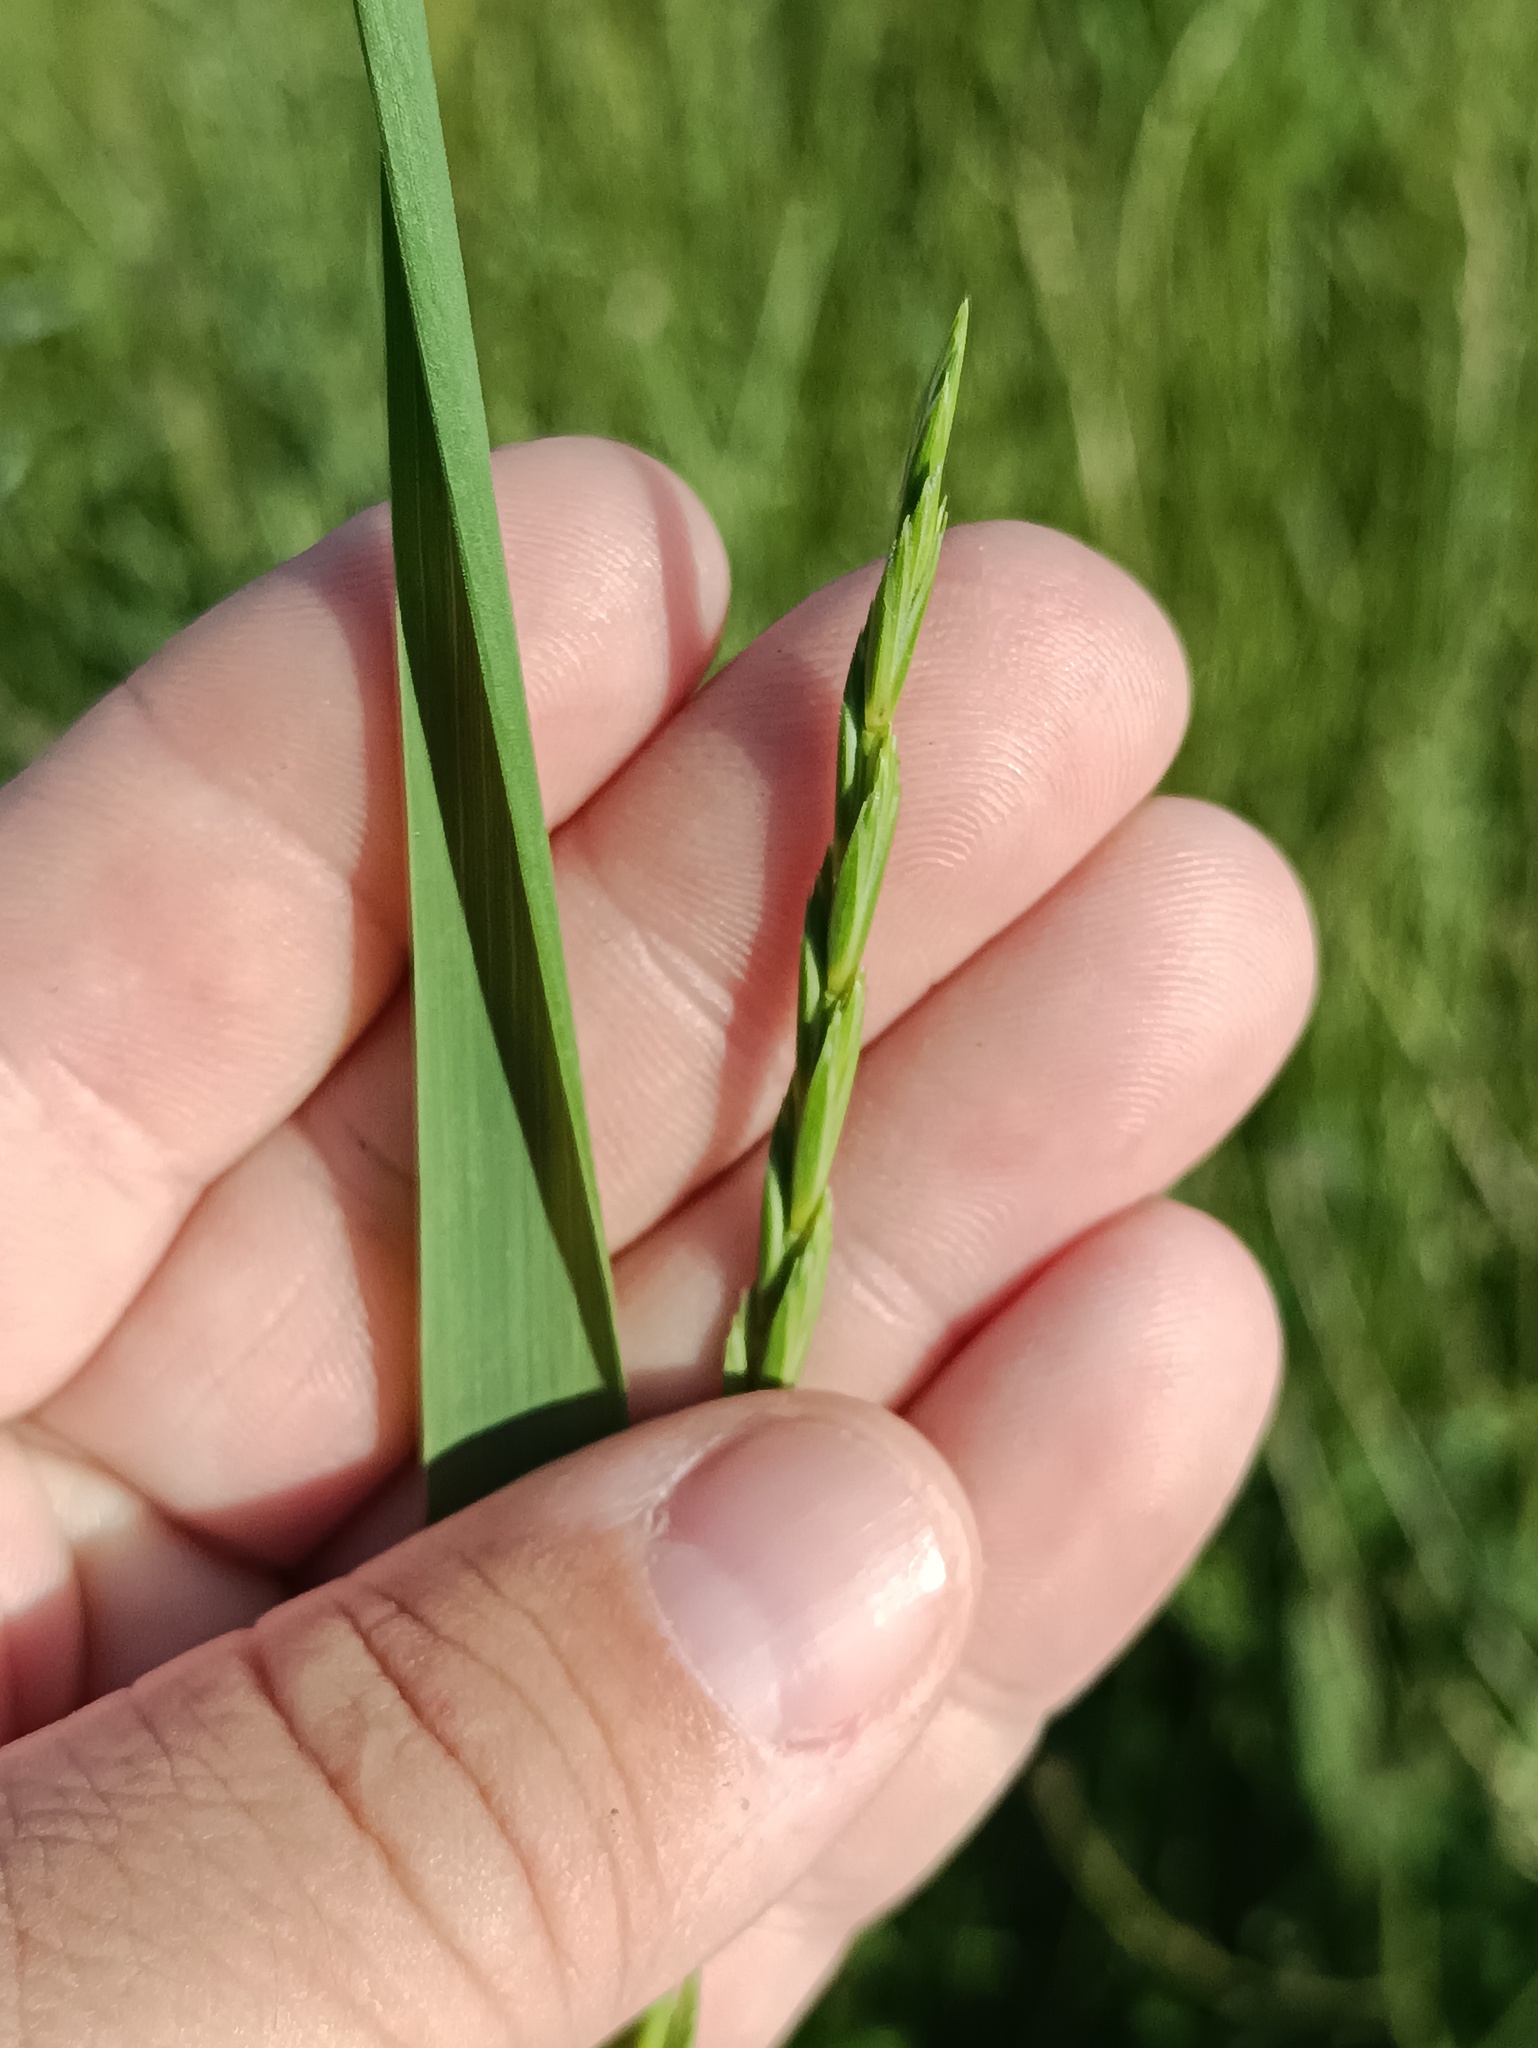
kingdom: Plantae
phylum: Tracheophyta
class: Liliopsida
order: Poales
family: Poaceae
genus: Elymus
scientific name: Elymus repens
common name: Quackgrass
